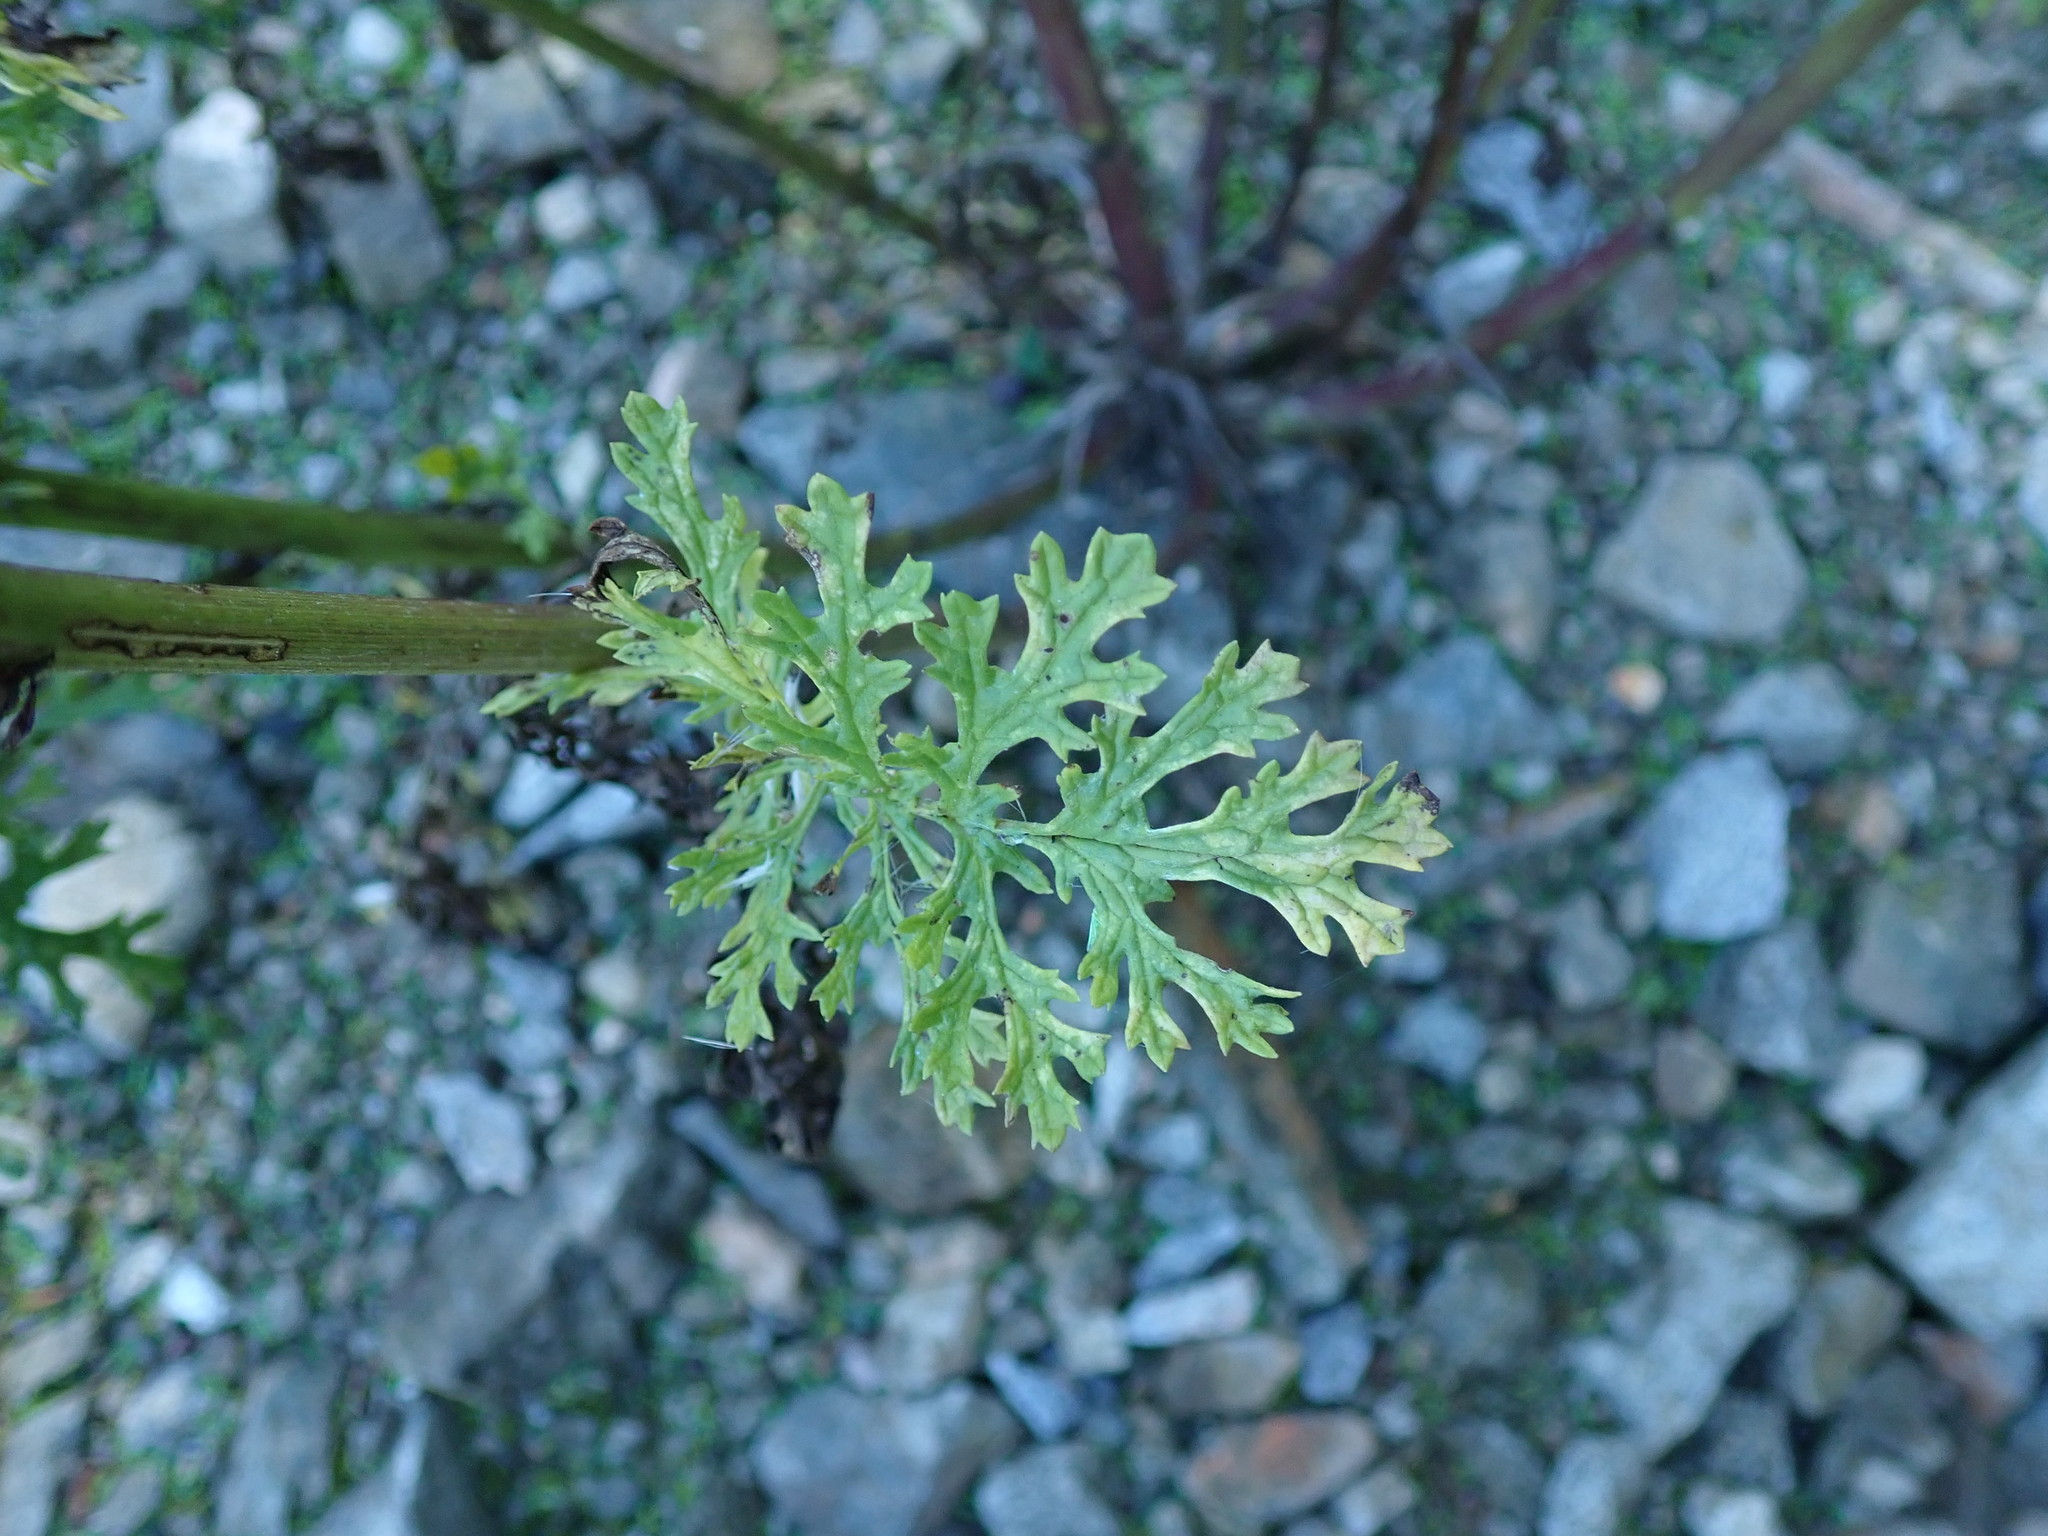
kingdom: Plantae
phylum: Tracheophyta
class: Magnoliopsida
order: Asterales
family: Asteraceae
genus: Jacobaea
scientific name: Jacobaea vulgaris
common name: Stinking willie
